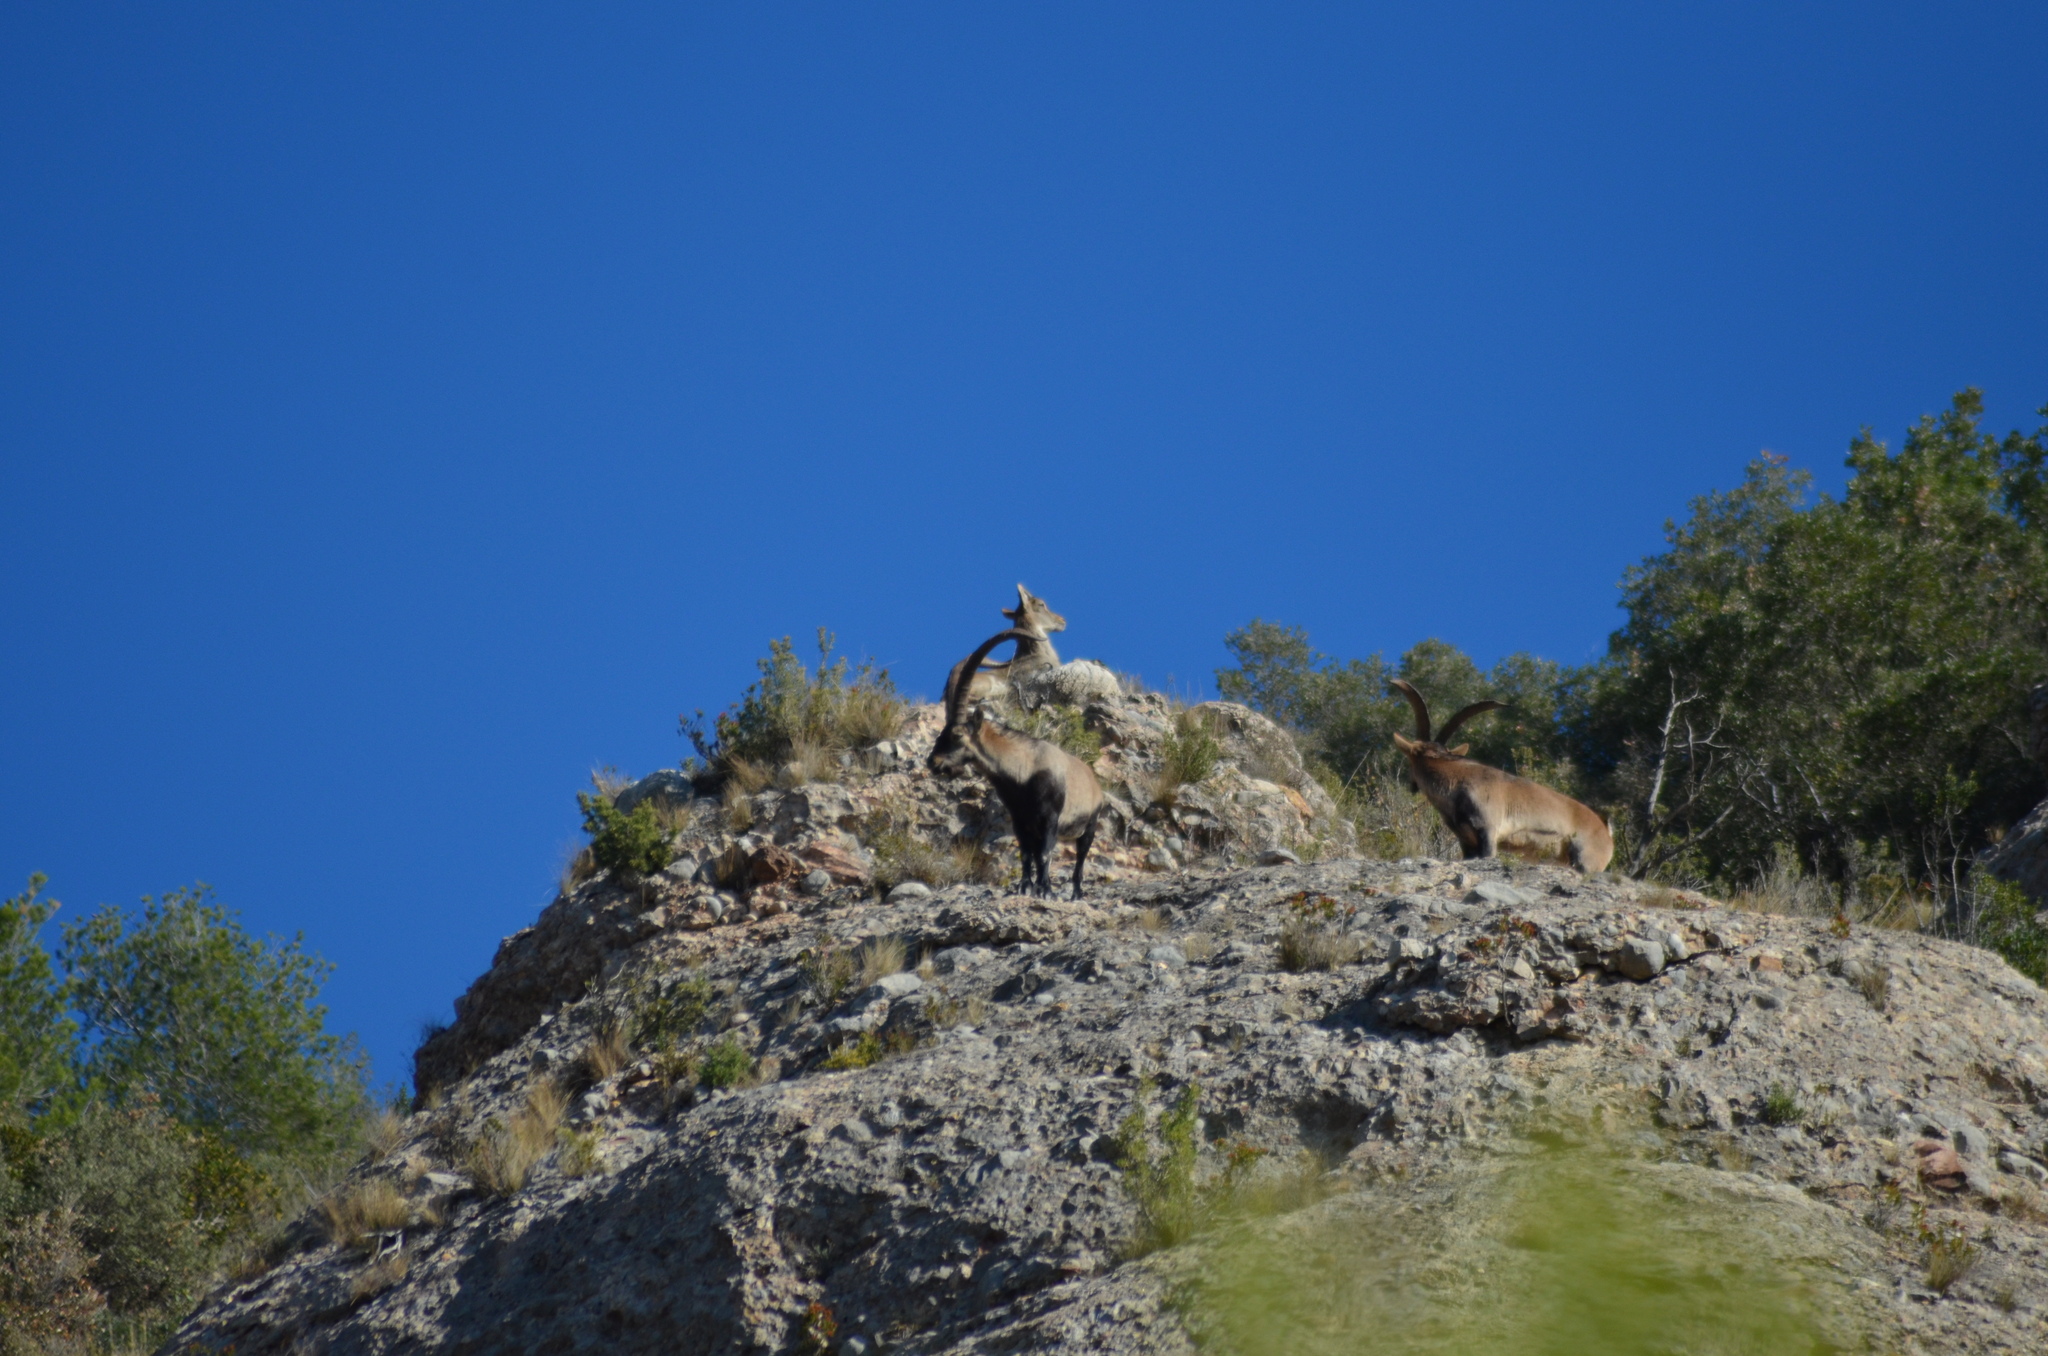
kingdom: Animalia
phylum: Chordata
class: Mammalia
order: Artiodactyla
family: Bovidae
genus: Capra
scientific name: Capra pyrenaica
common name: Spanish ibex
